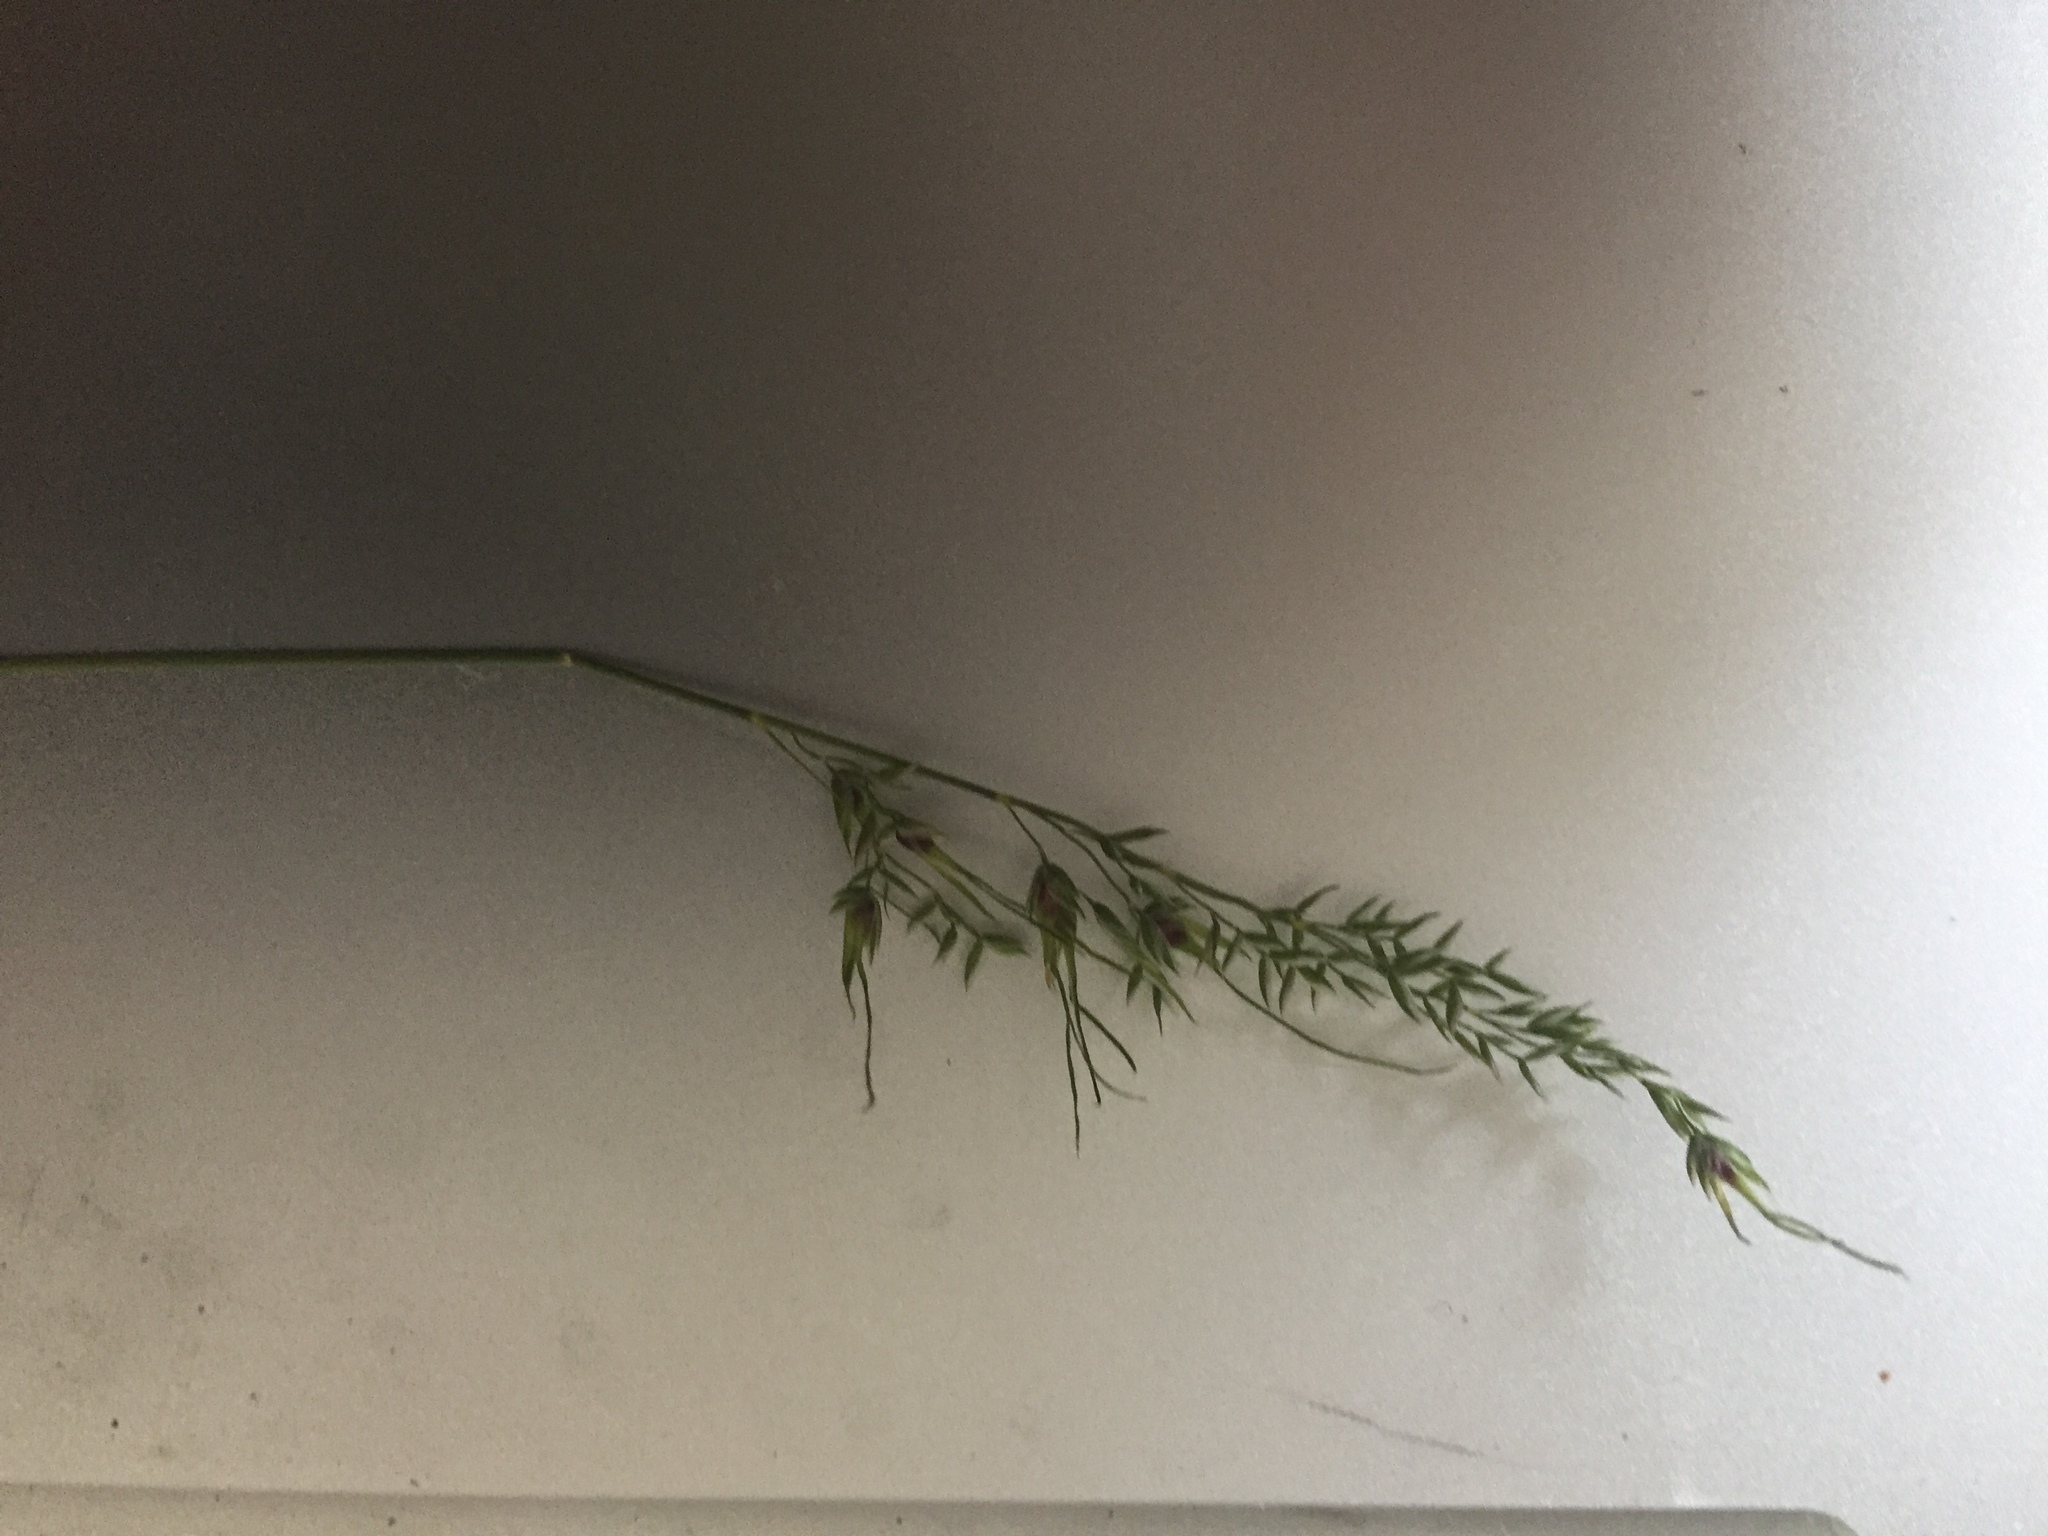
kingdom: Plantae
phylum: Tracheophyta
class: Liliopsida
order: Poales
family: Poaceae
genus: Poa
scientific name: Poa bulbosa
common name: Bulbous bluegrass
